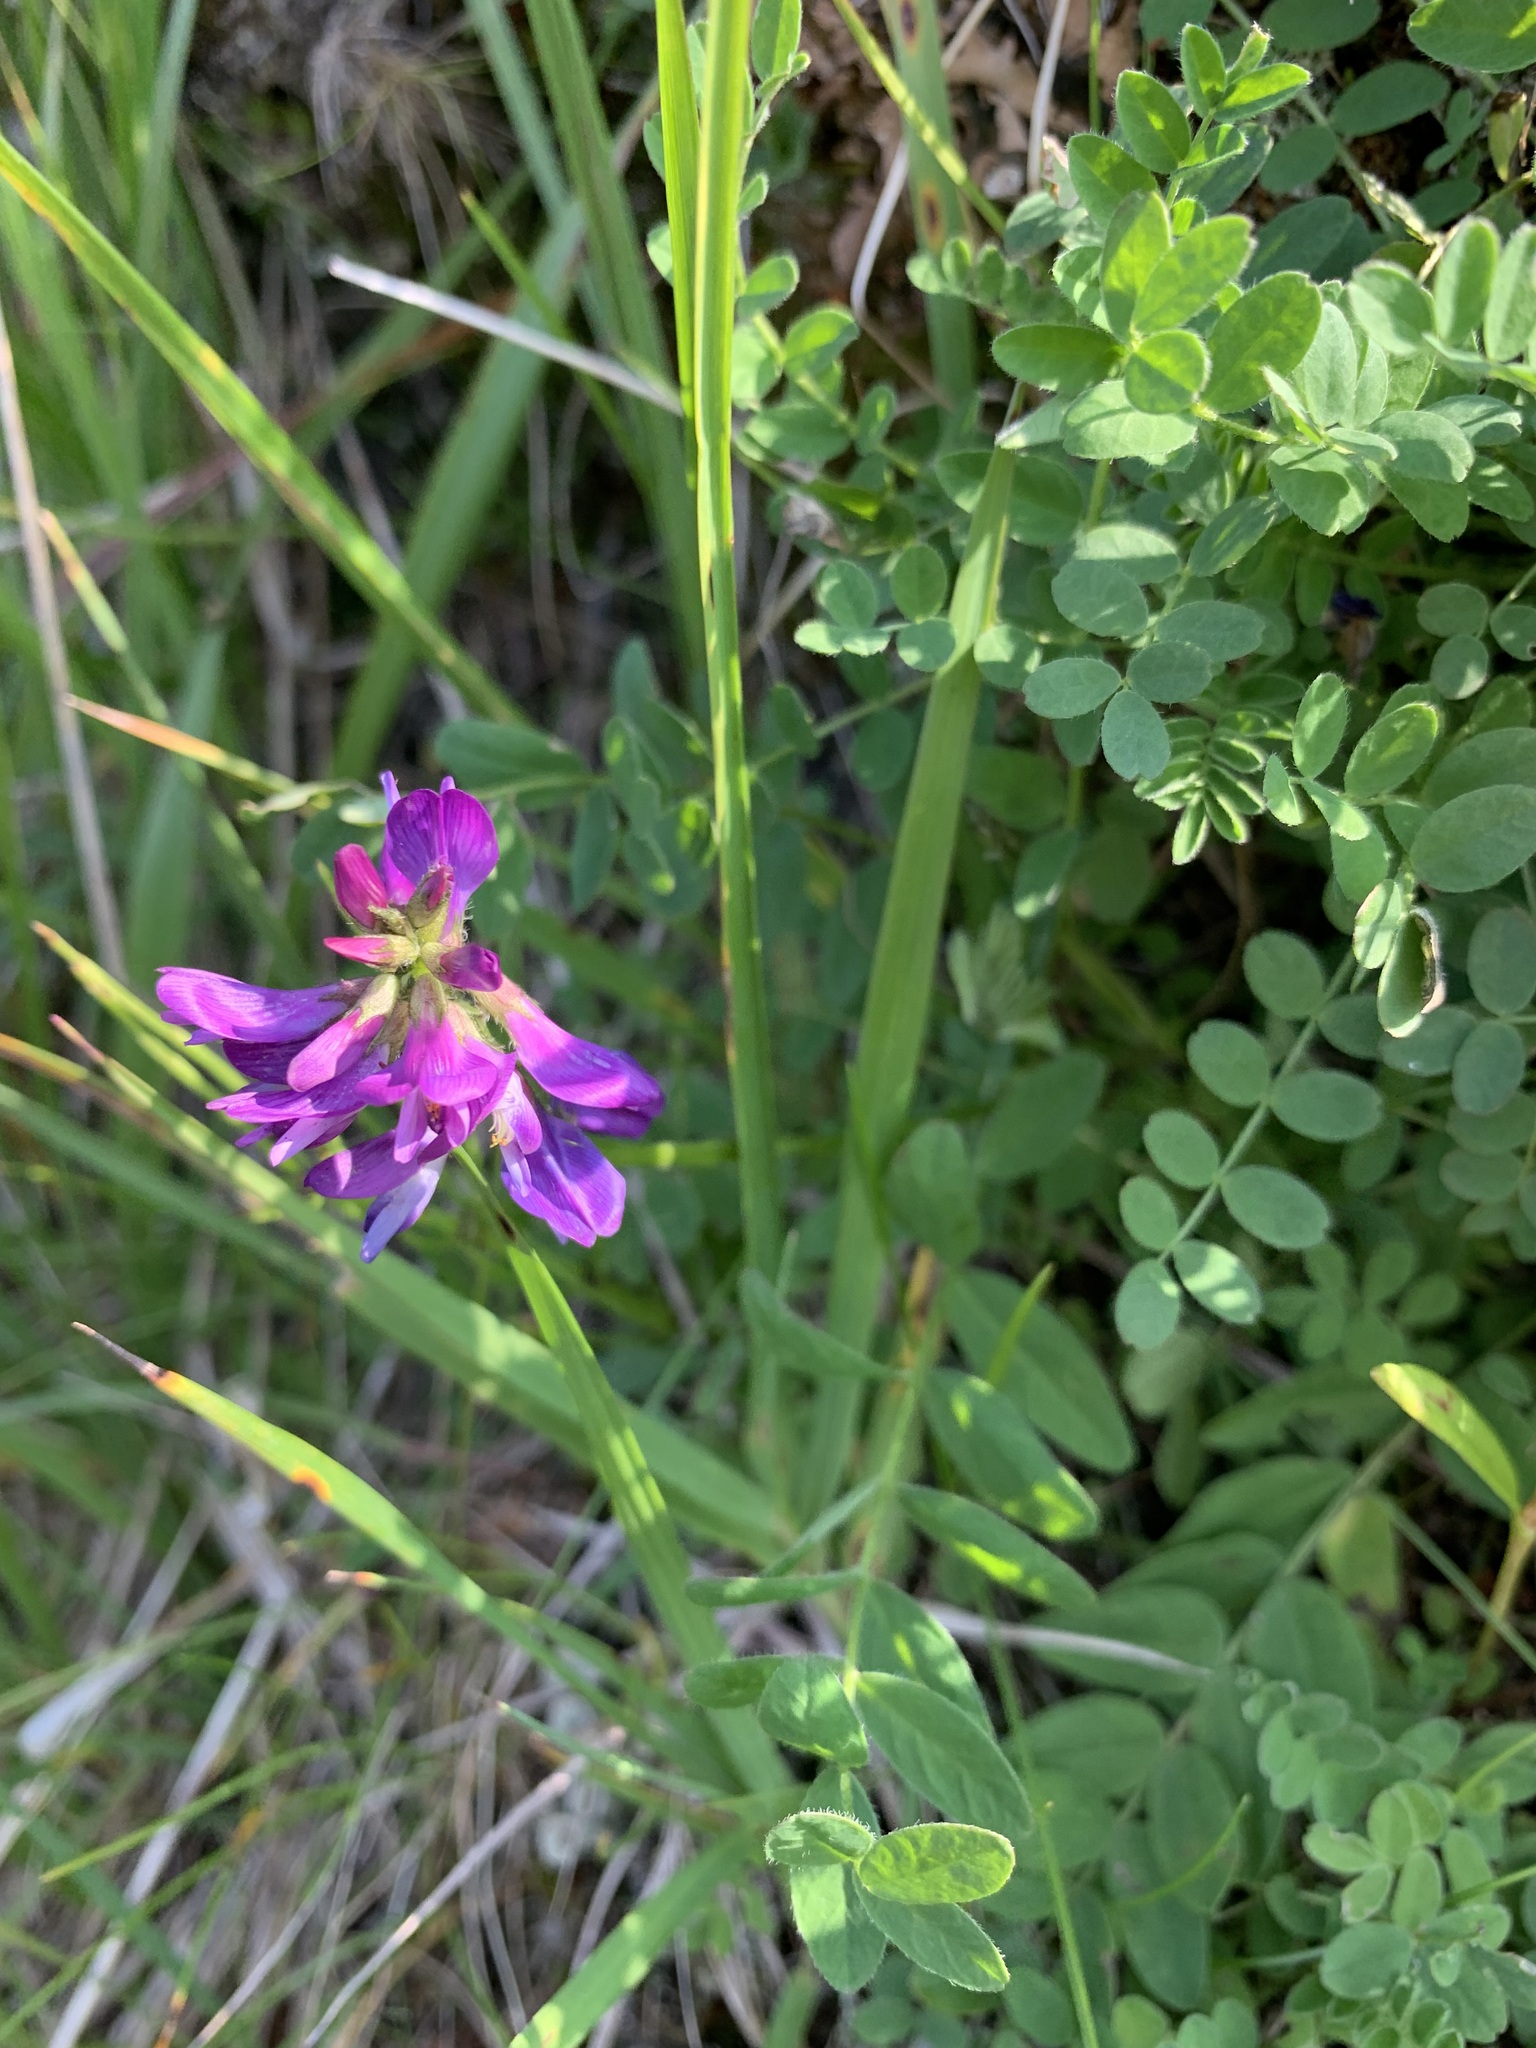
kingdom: Plantae
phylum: Tracheophyta
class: Magnoliopsida
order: Fabales
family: Fabaceae
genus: Astragalus
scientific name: Astragalus alpinus
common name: Alpine milk-vetch
